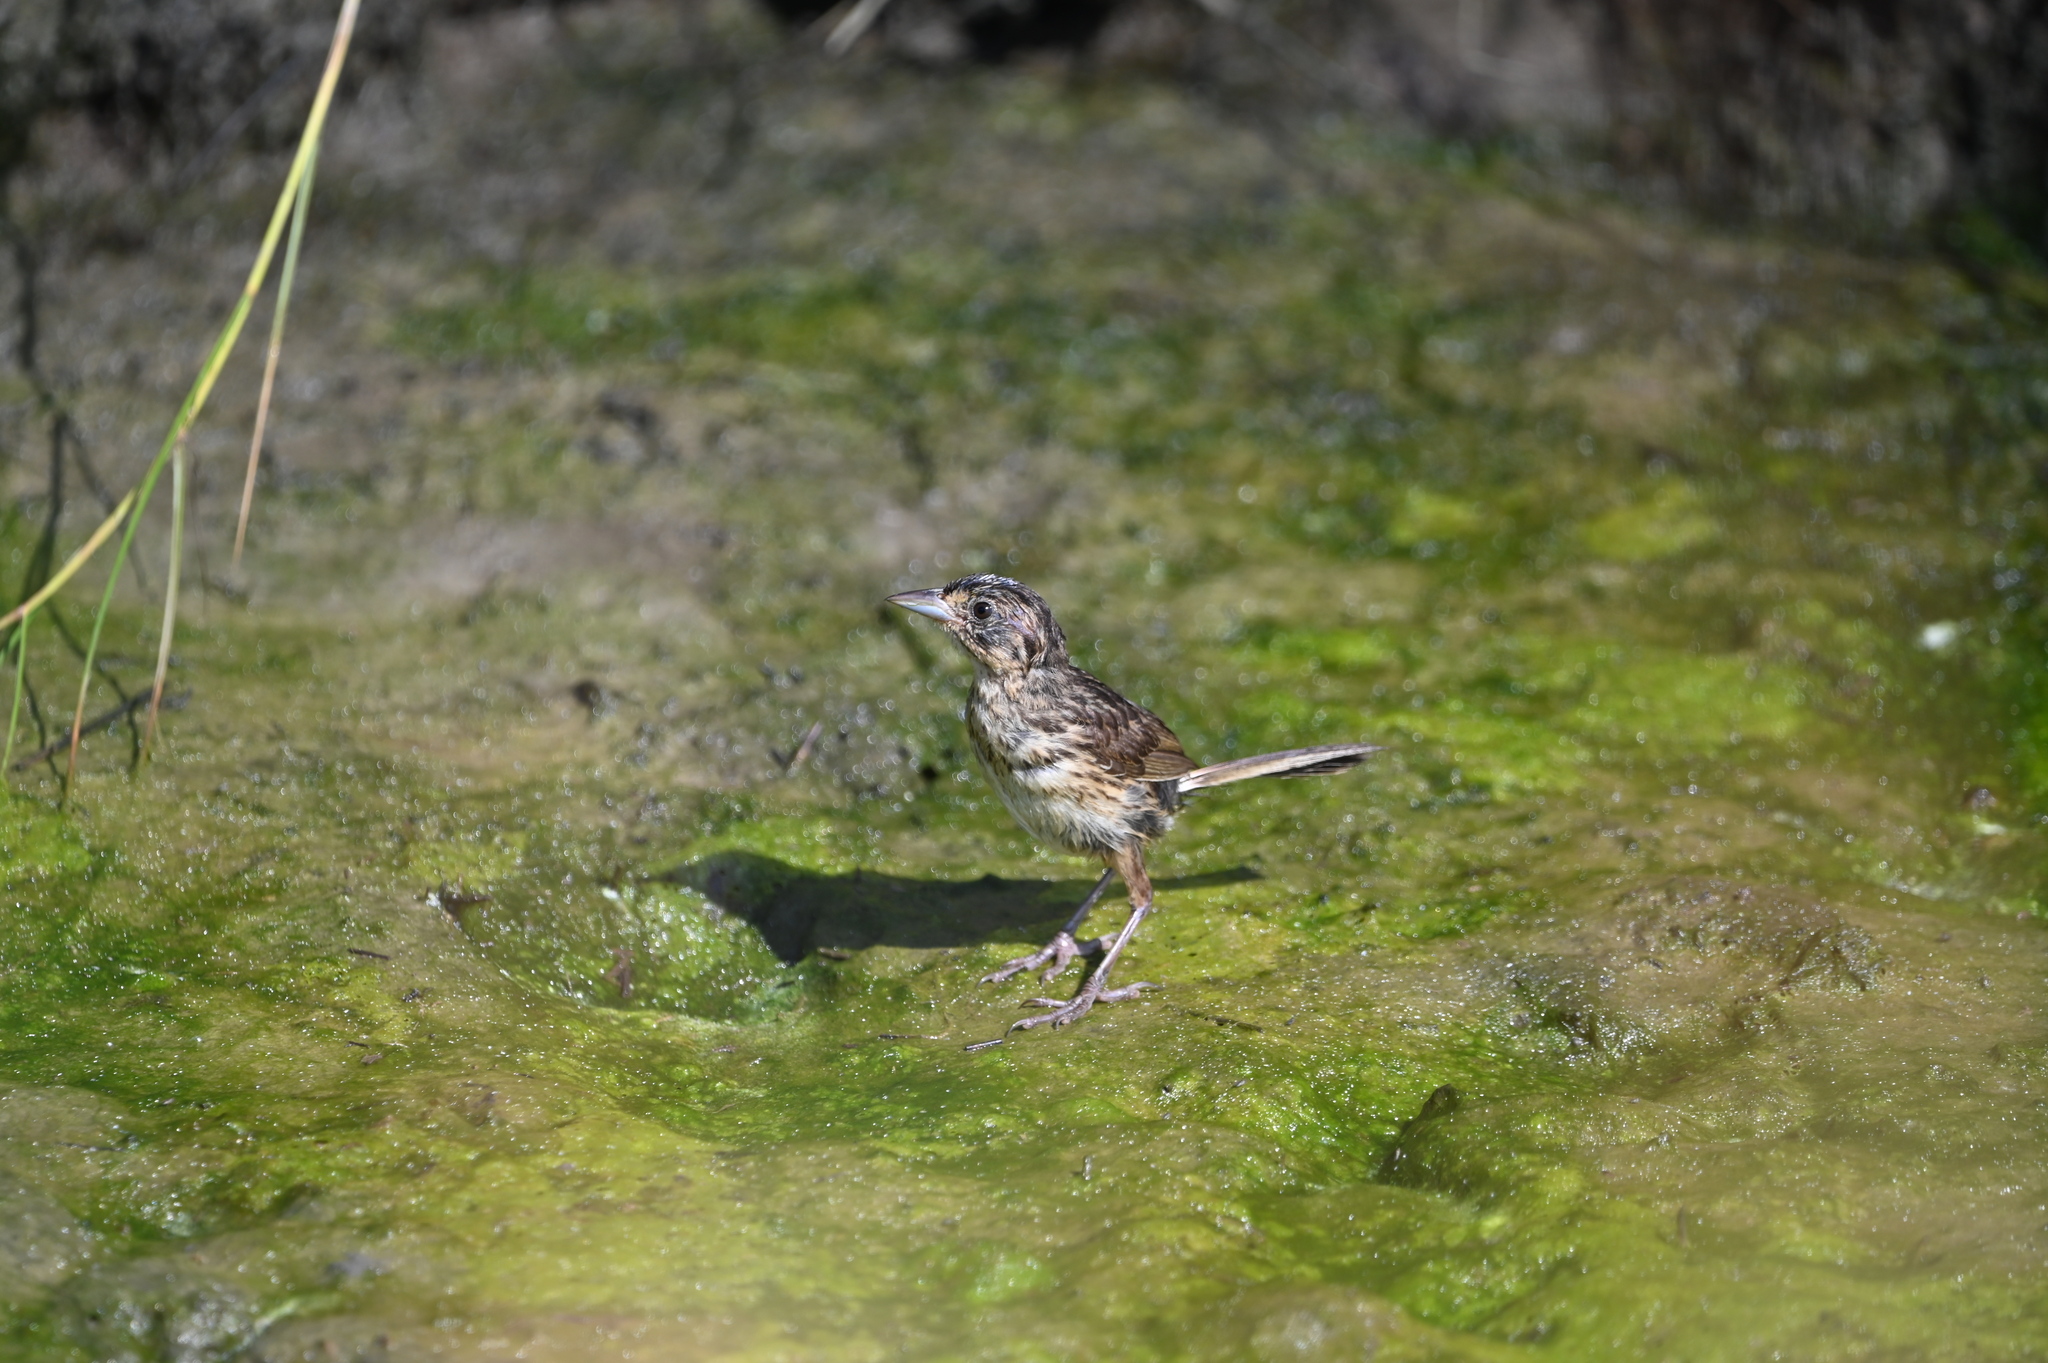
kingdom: Animalia
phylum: Chordata
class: Aves
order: Passeriformes
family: Passerellidae
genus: Ammospiza
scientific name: Ammospiza maritima
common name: Seaside sparrow
